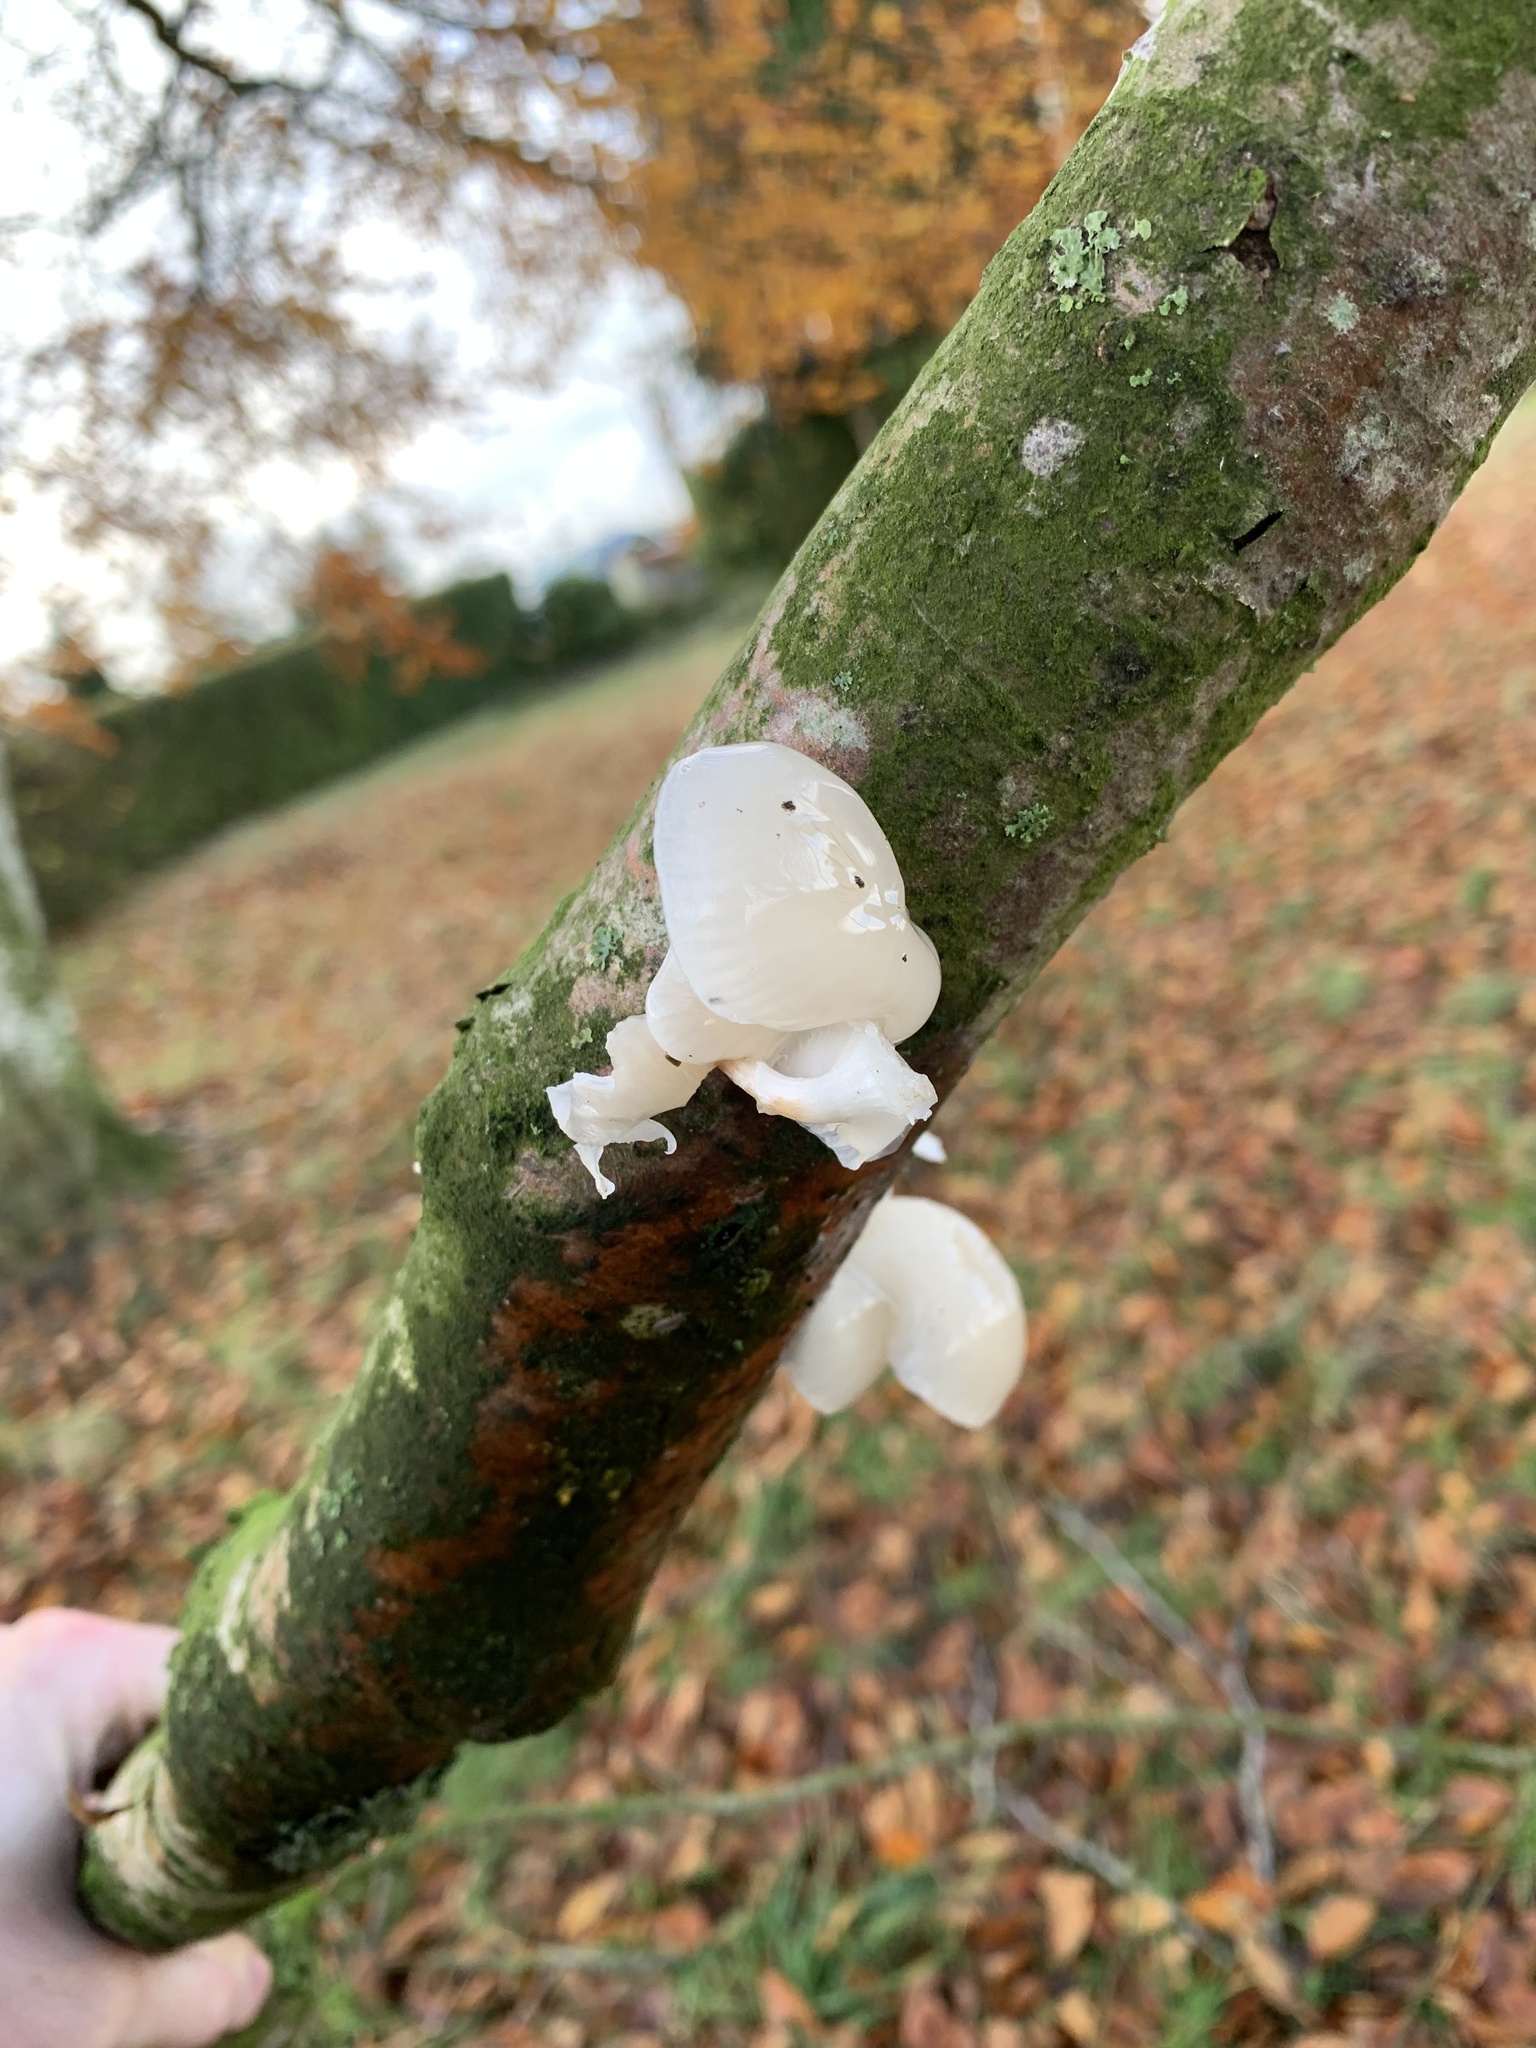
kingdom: Fungi
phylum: Basidiomycota
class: Agaricomycetes
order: Agaricales
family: Physalacriaceae
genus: Mucidula
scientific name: Mucidula mucida
